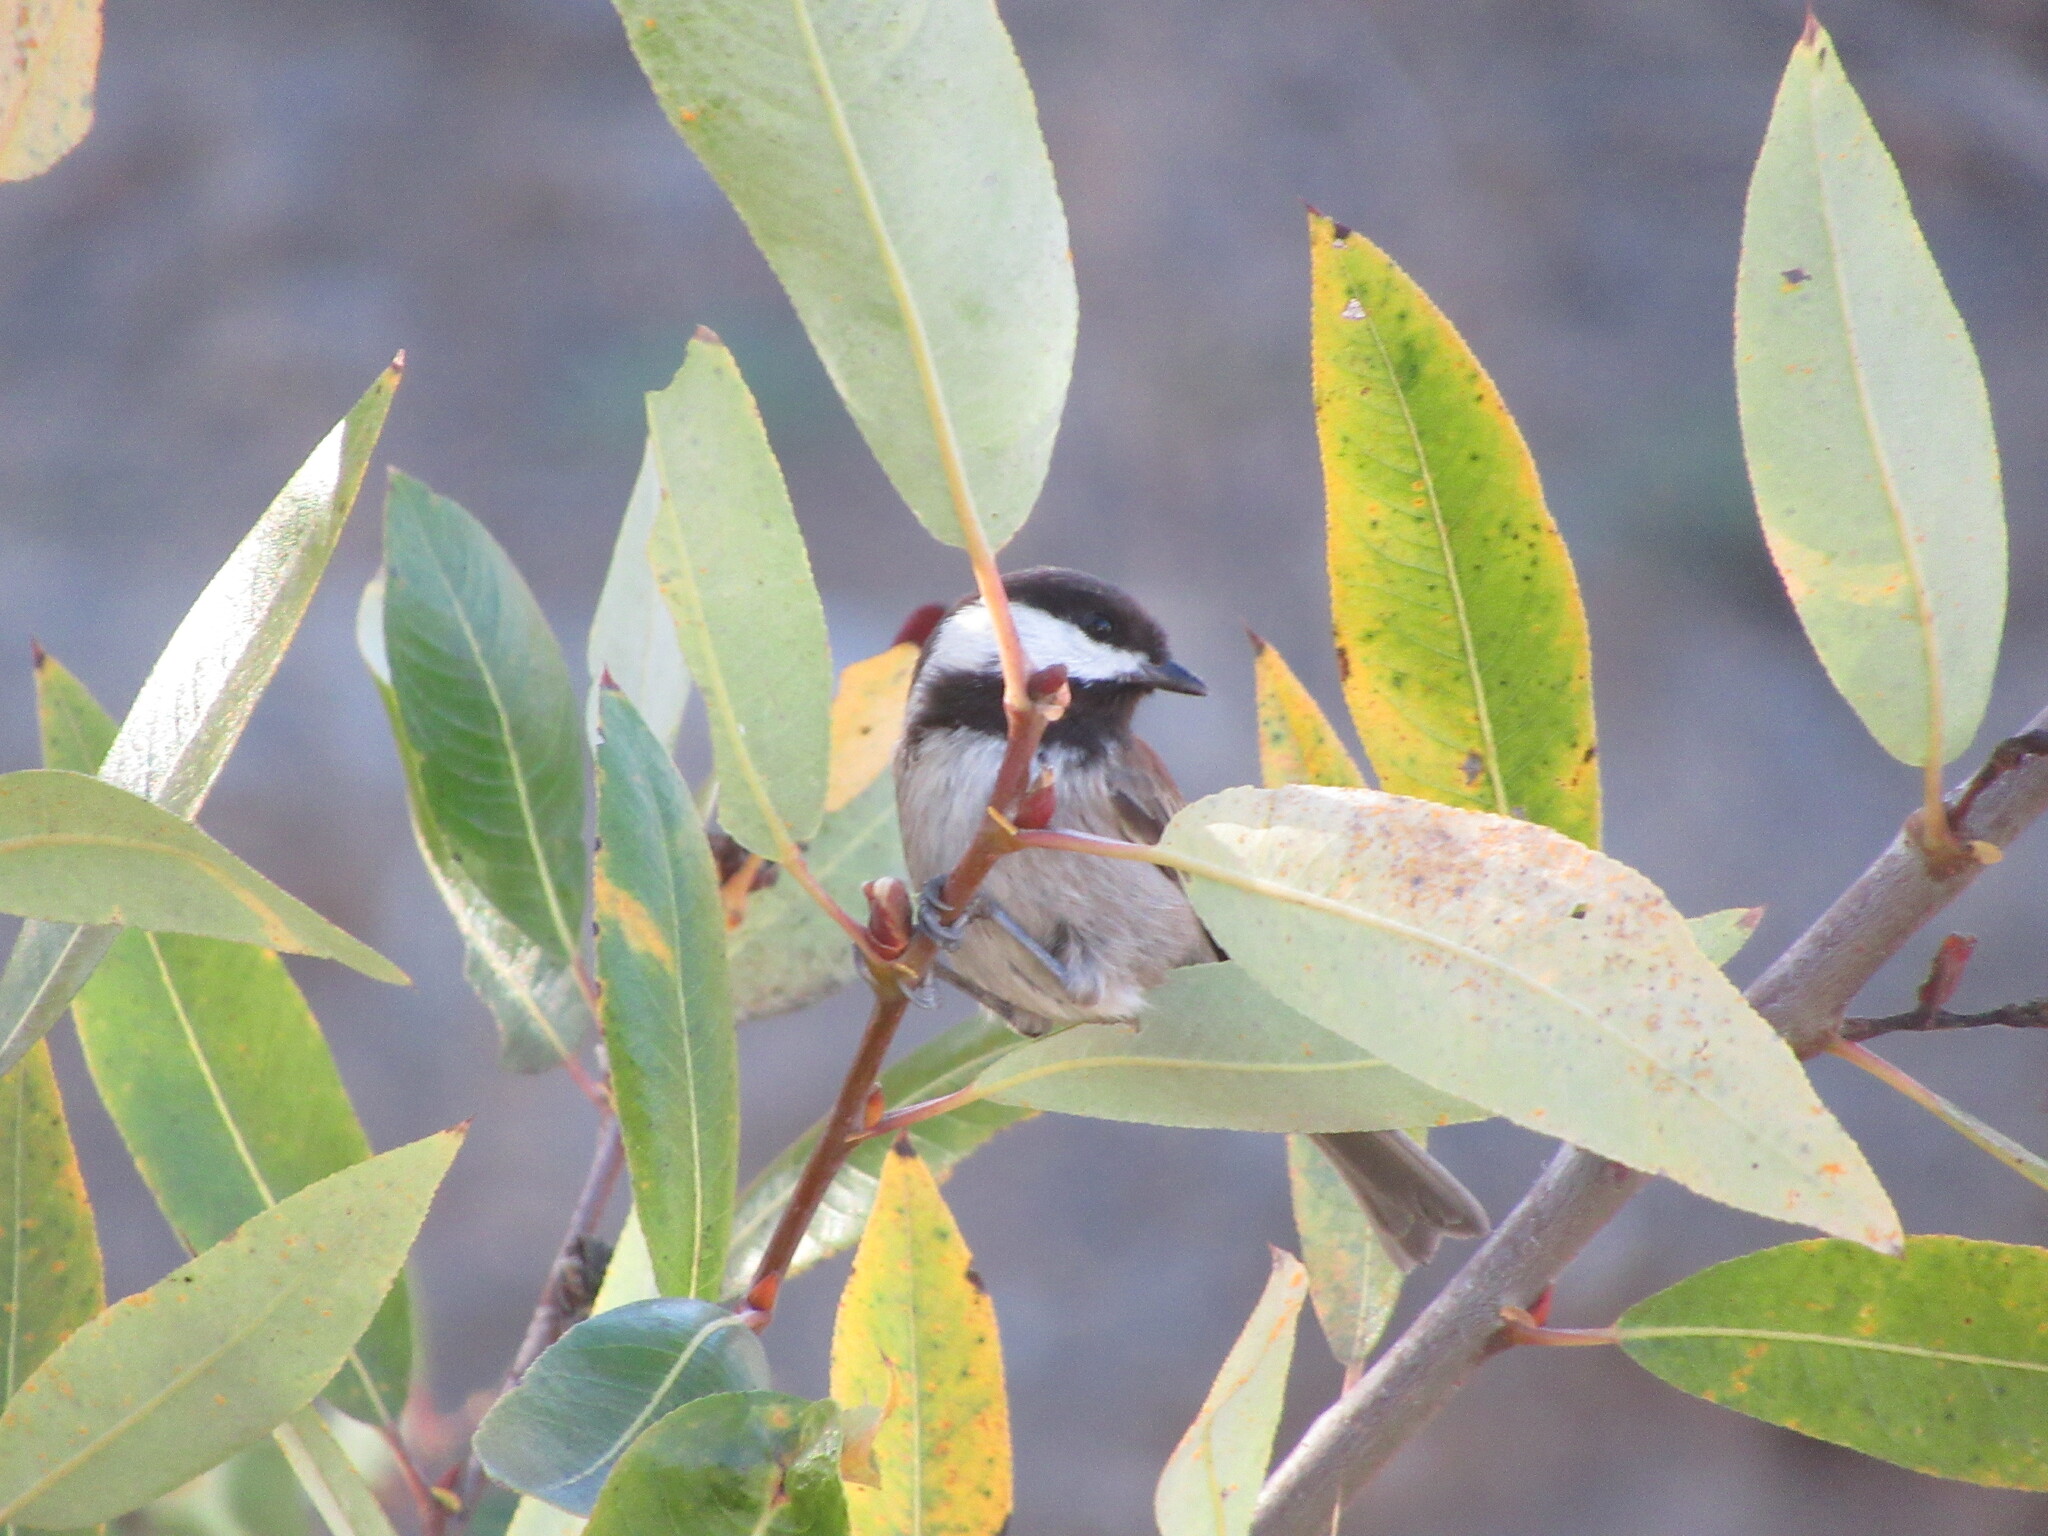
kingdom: Animalia
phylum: Chordata
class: Aves
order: Passeriformes
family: Paridae
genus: Poecile
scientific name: Poecile rufescens
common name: Chestnut-backed chickadee
